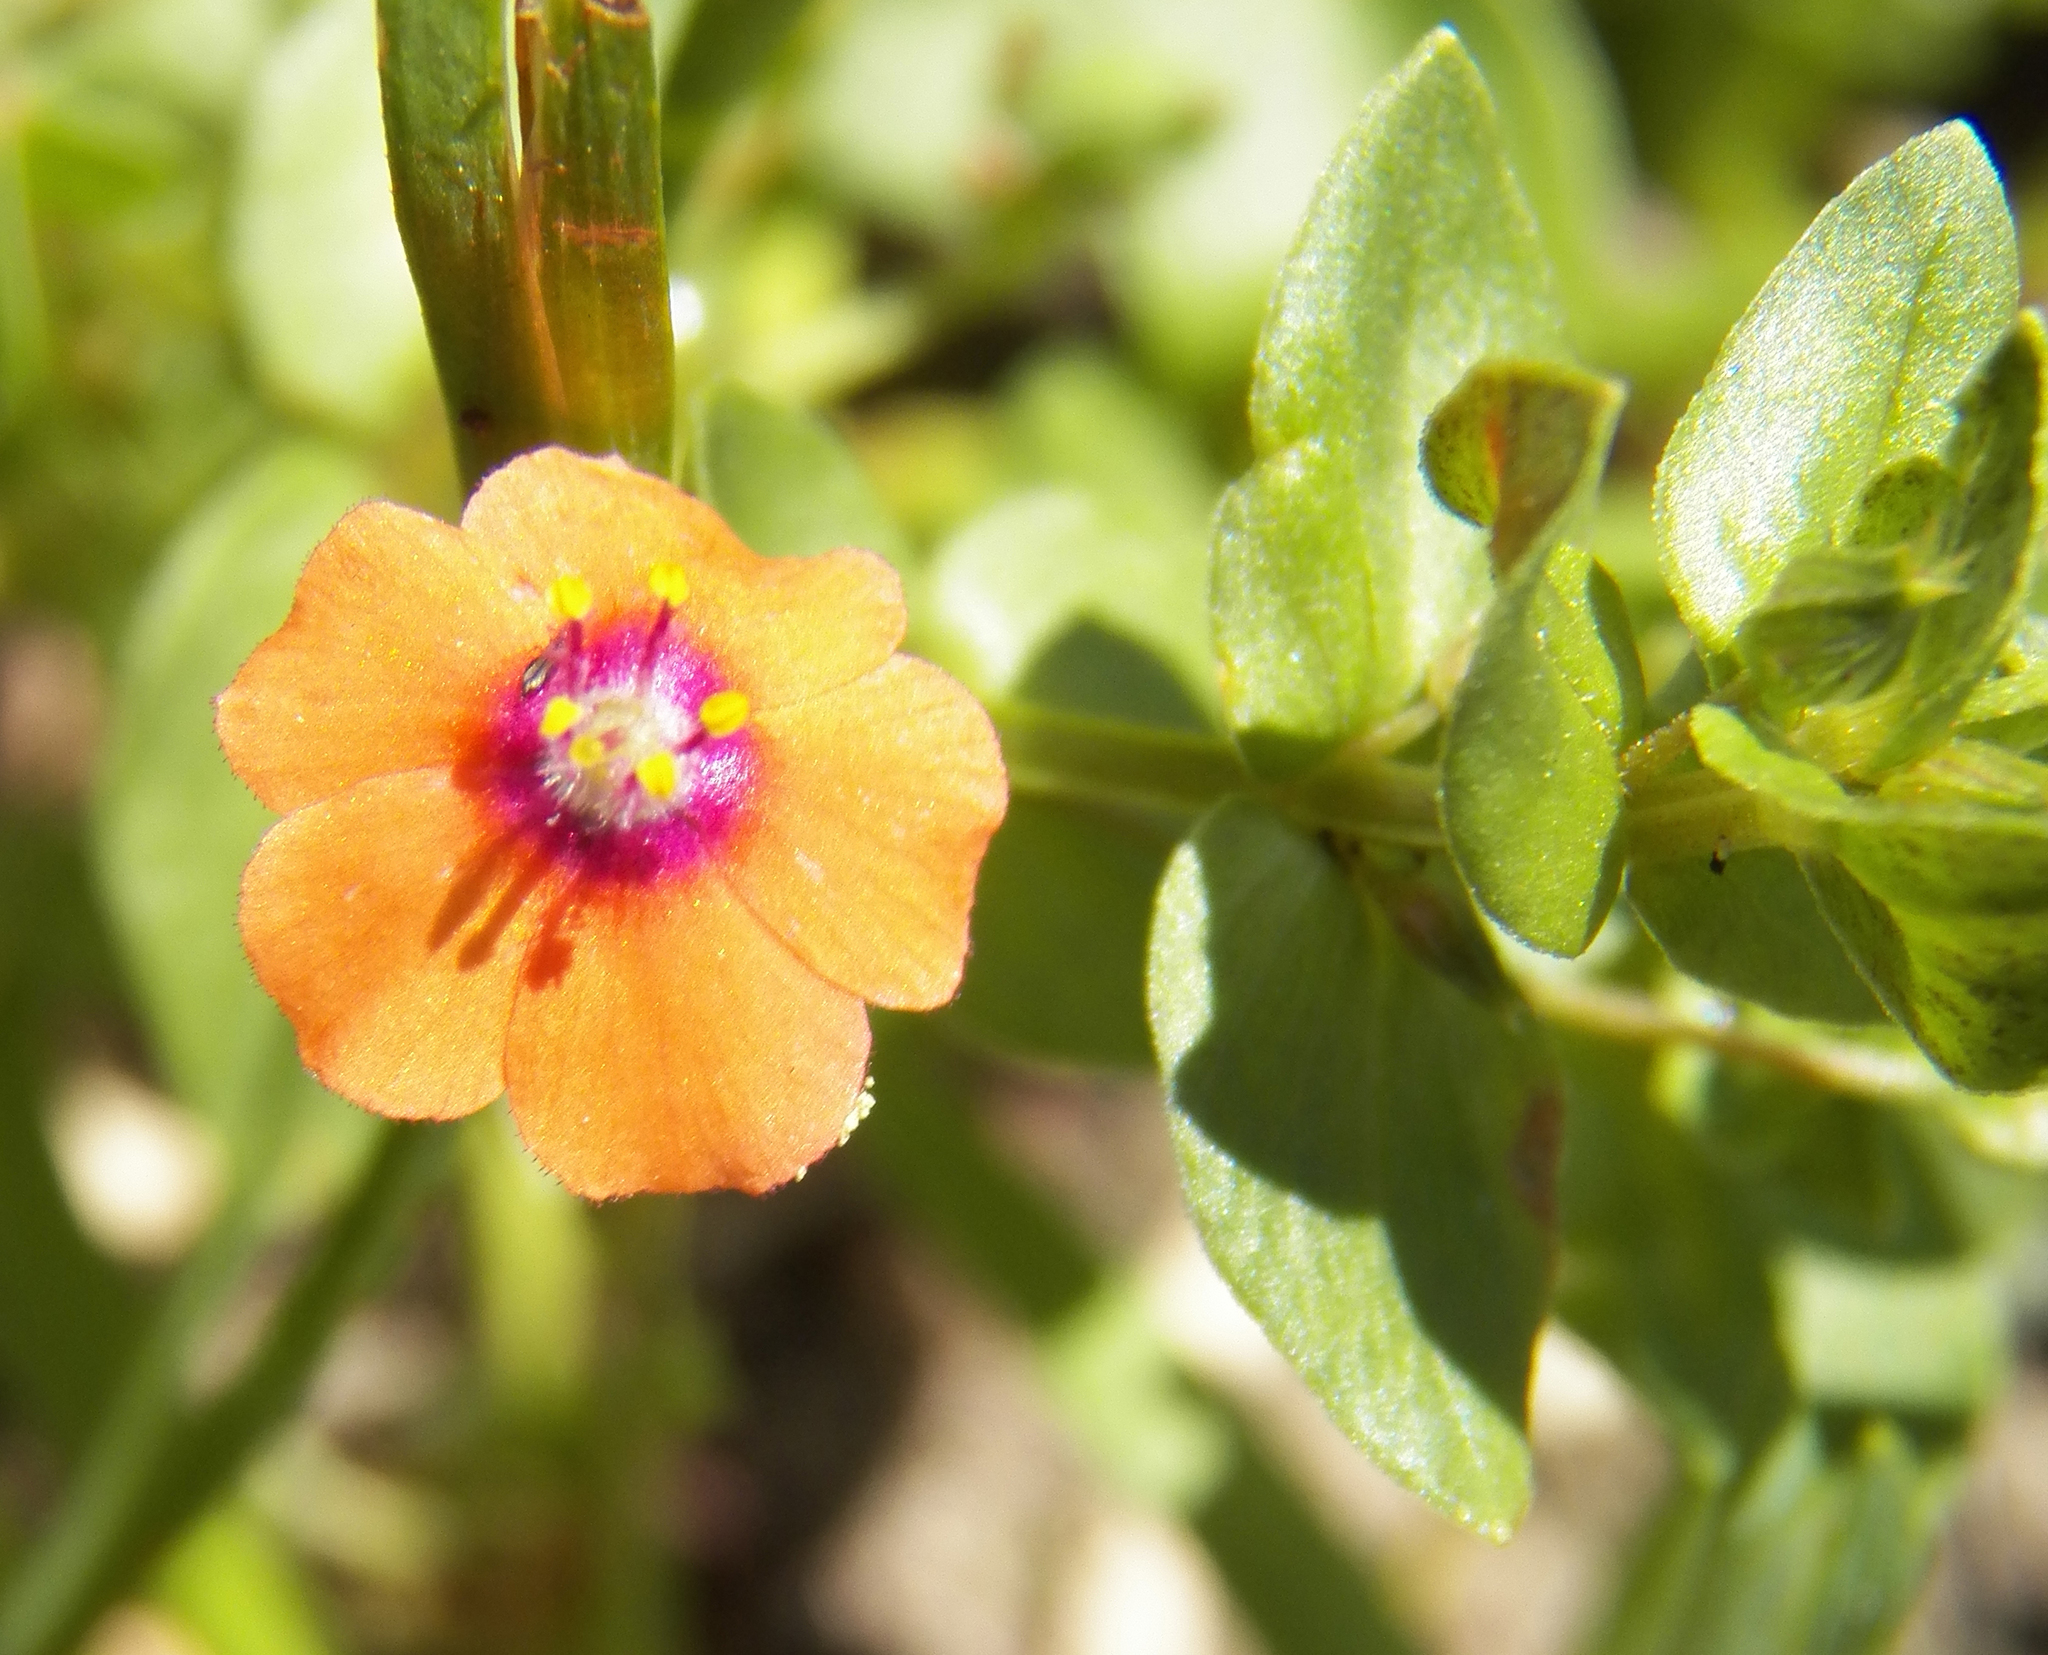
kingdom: Plantae
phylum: Tracheophyta
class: Magnoliopsida
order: Ericales
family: Primulaceae
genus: Lysimachia
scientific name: Lysimachia arvensis
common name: Scarlet pimpernel
